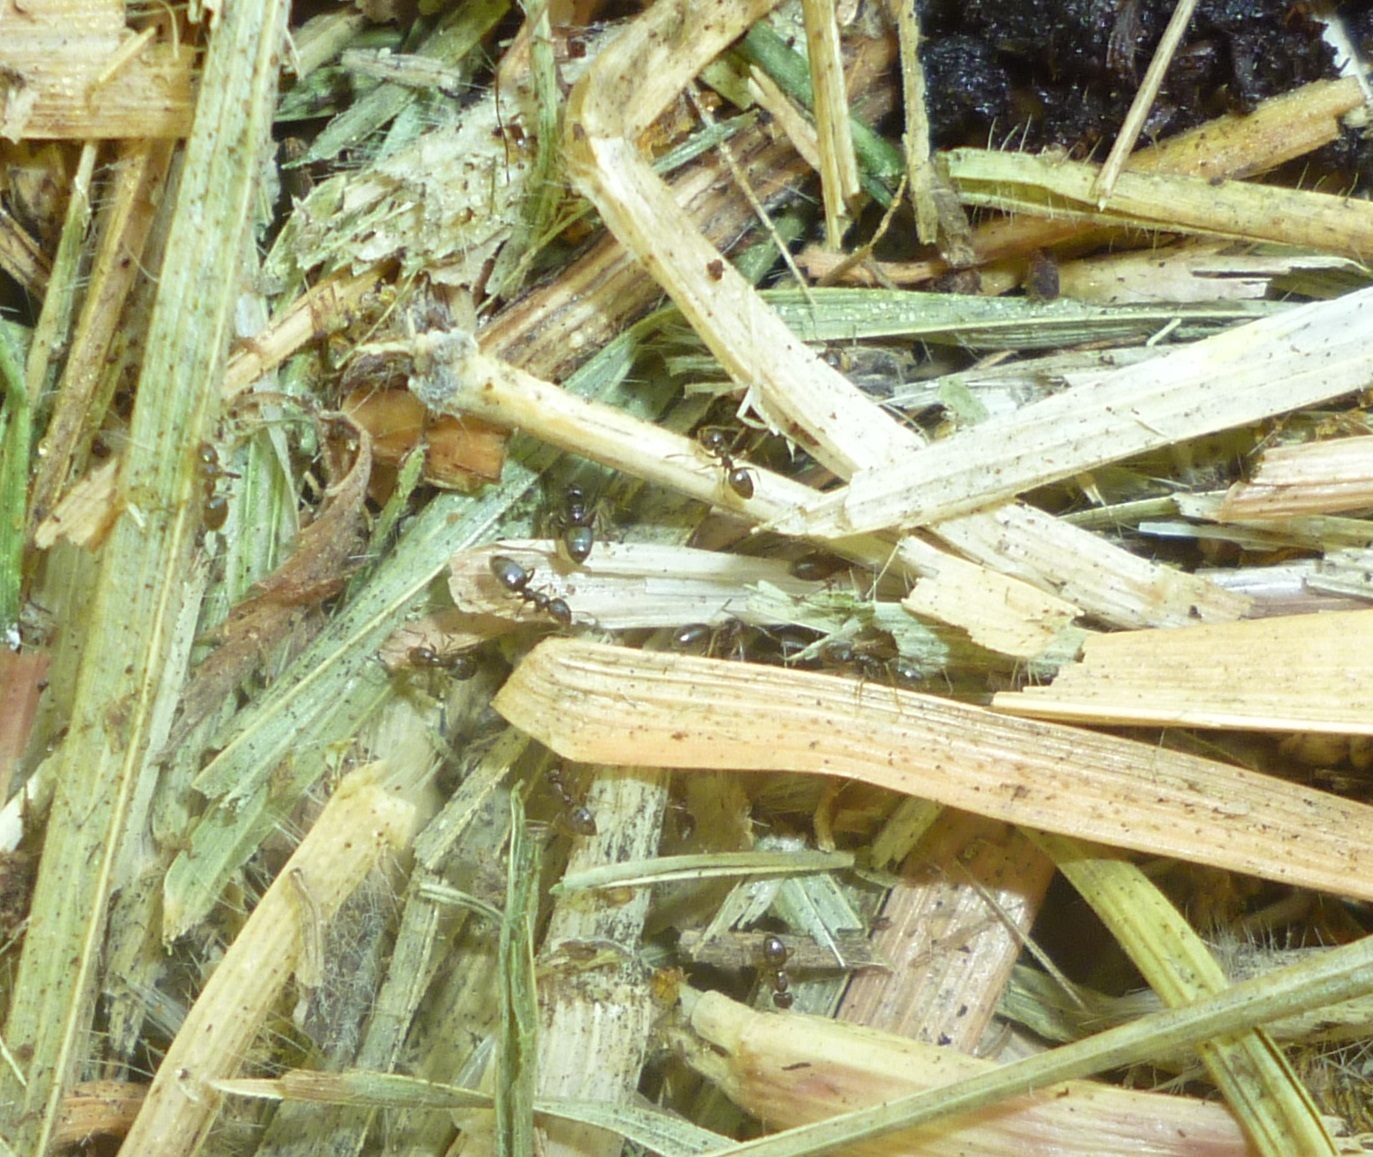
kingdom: Animalia
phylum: Arthropoda
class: Insecta
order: Hymenoptera
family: Formicidae
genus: Plagiolepis
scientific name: Plagiolepis pallescens
